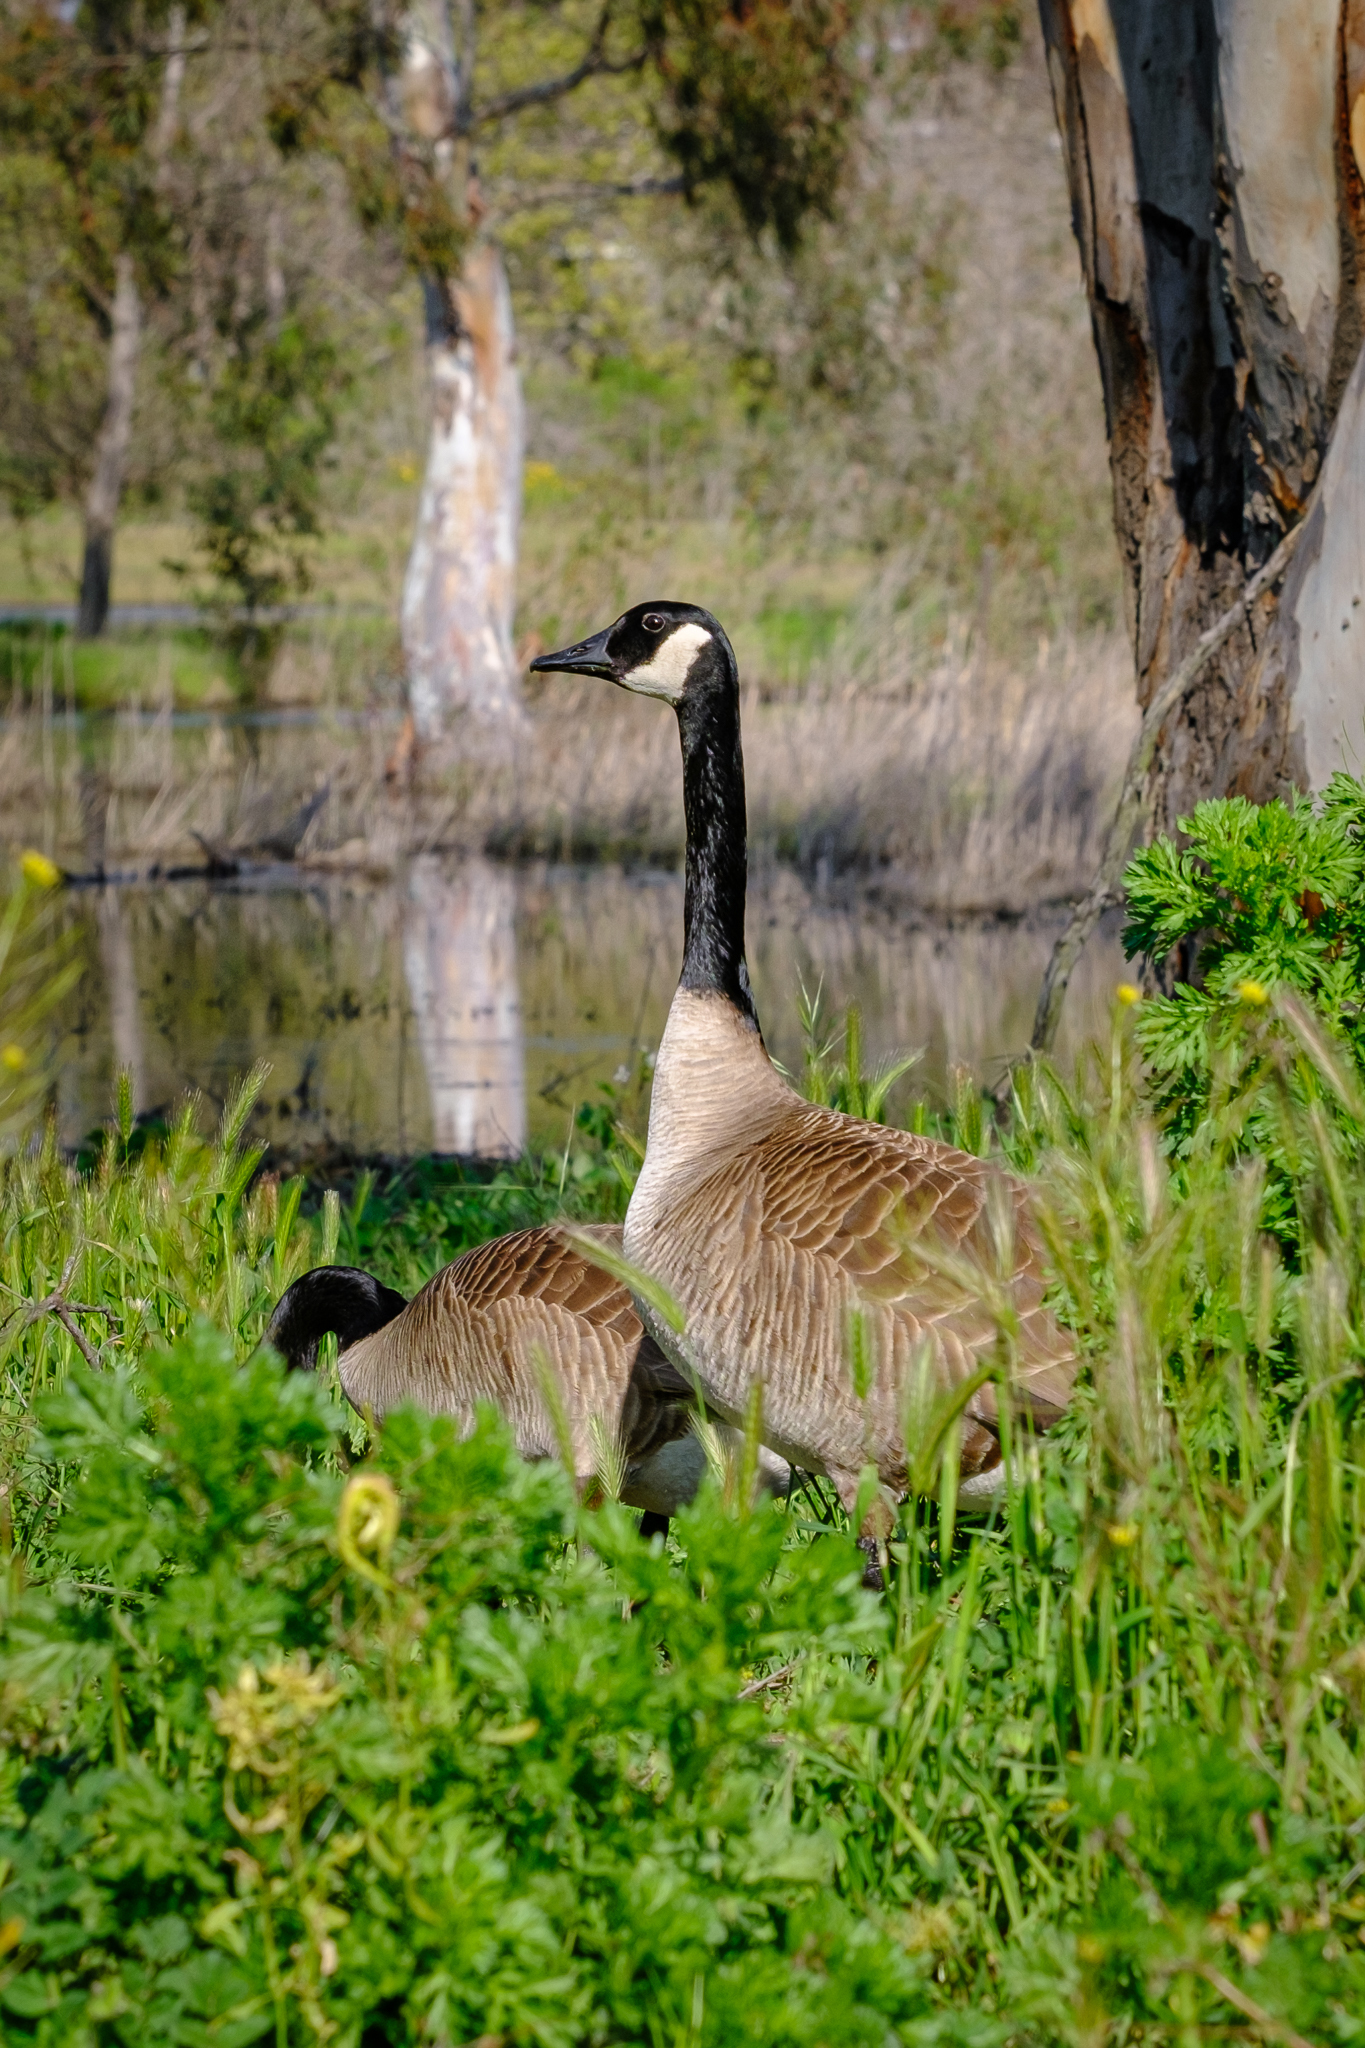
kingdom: Animalia
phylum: Chordata
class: Aves
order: Anseriformes
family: Anatidae
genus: Branta
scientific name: Branta canadensis
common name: Canada goose
